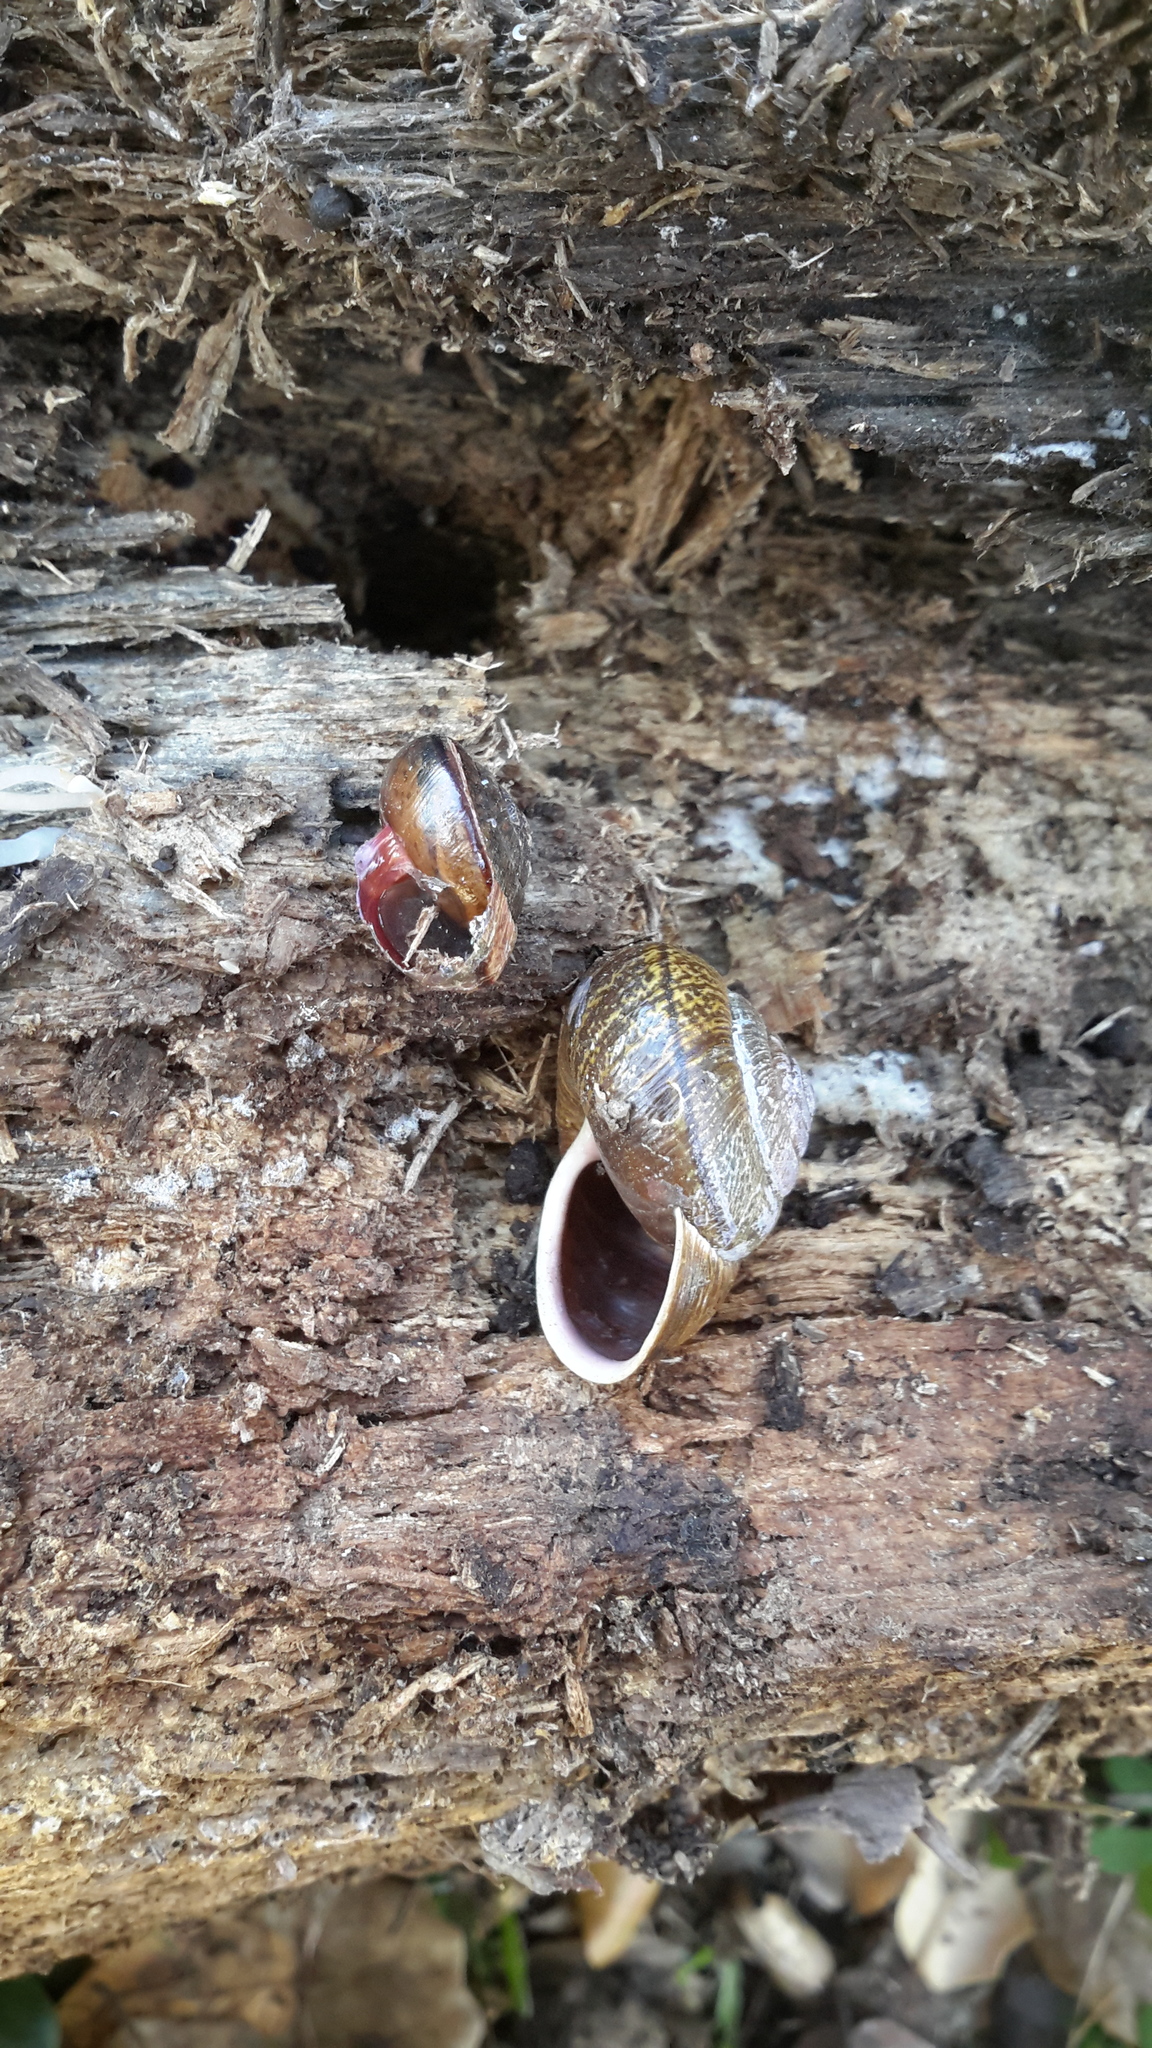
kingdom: Animalia
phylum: Mollusca
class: Gastropoda
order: Stylommatophora
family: Xanthonychidae
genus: Helminthoglypta
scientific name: Helminthoglypta arrosa
